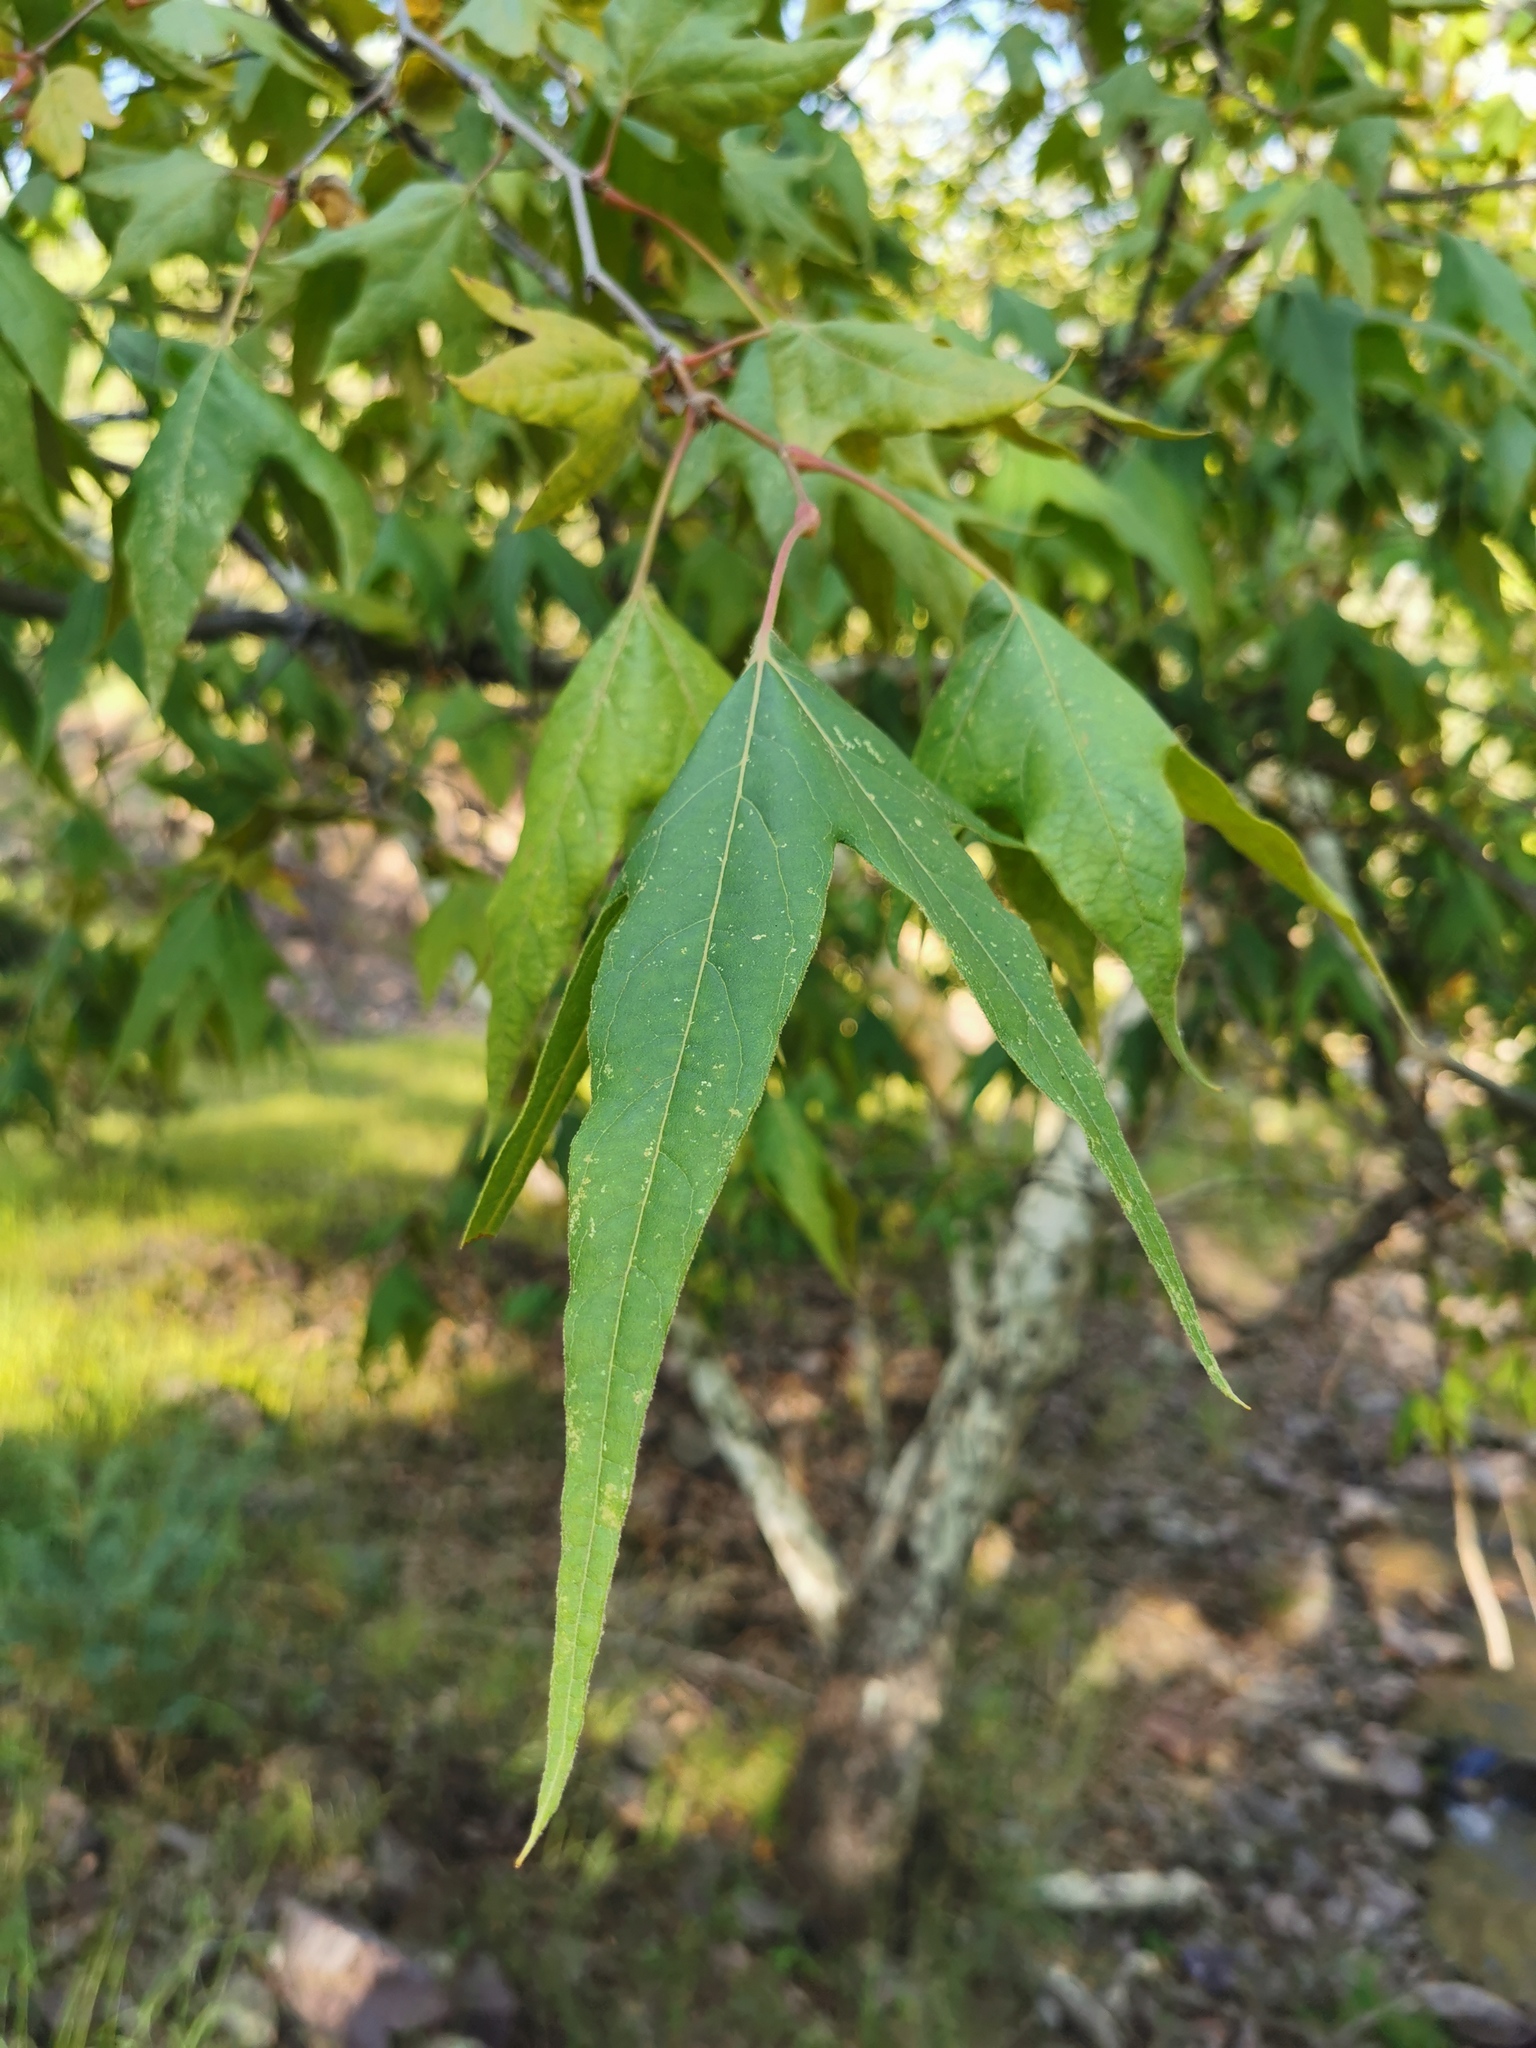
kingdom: Plantae
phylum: Tracheophyta
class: Magnoliopsida
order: Proteales
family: Platanaceae
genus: Platanus
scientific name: Platanus wrightii
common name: Arizona sycamore
